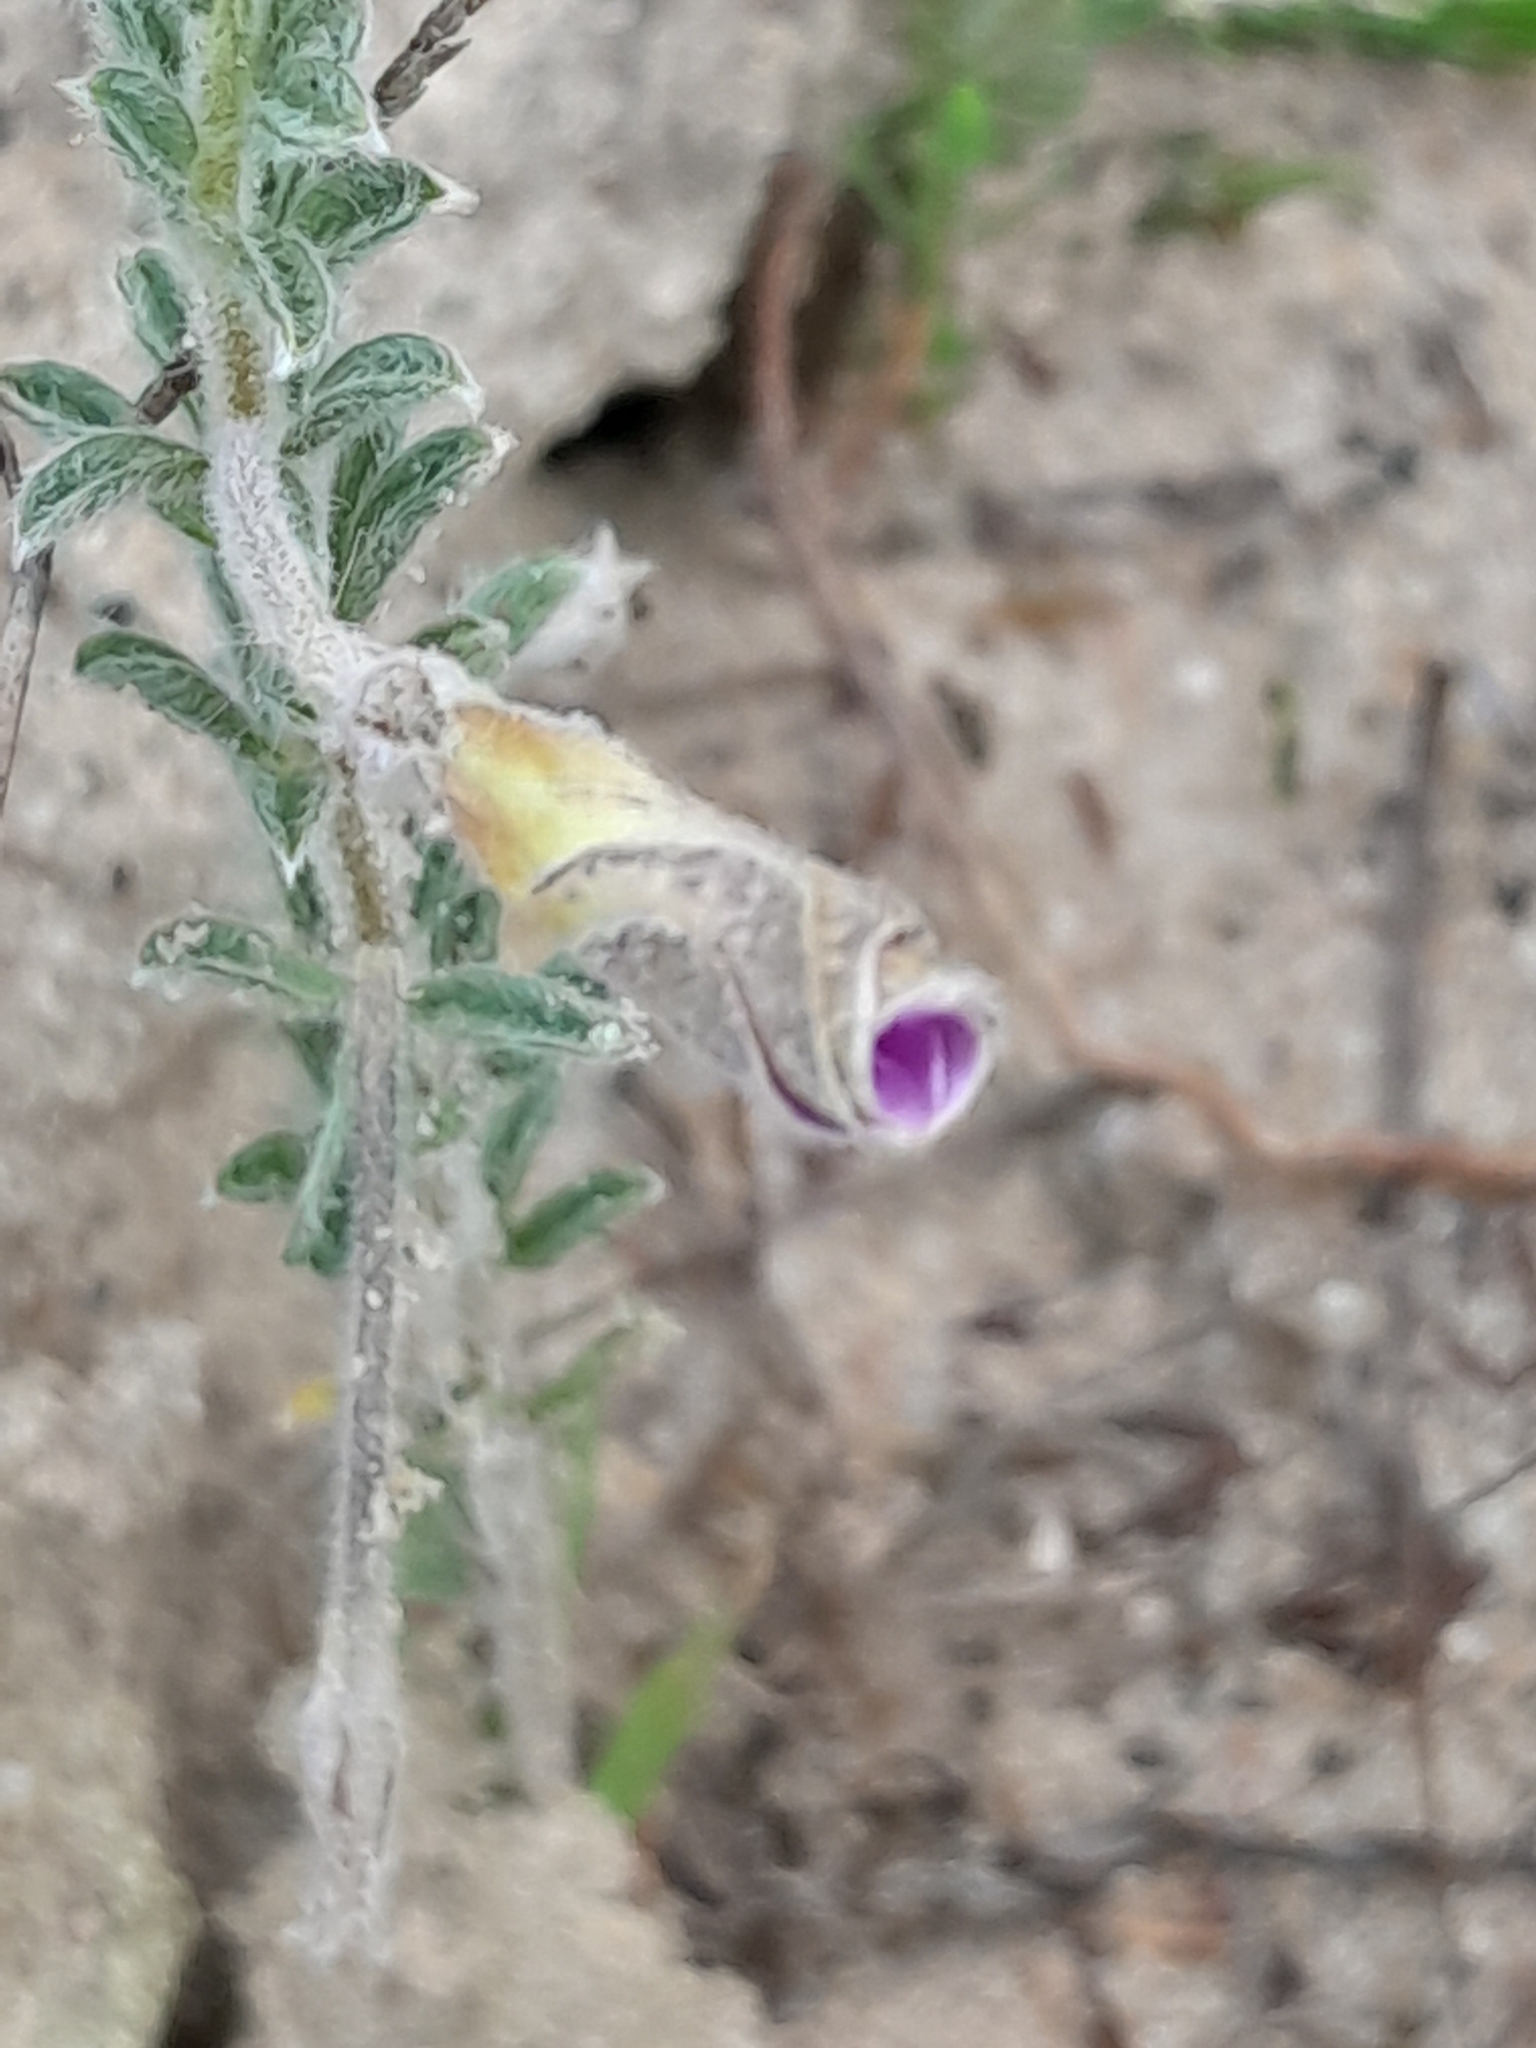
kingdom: Plantae
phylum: Tracheophyta
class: Magnoliopsida
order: Oxalidales
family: Oxalidaceae
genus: Oxalis
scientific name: Oxalis hirta
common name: Tropical woodsorrel
